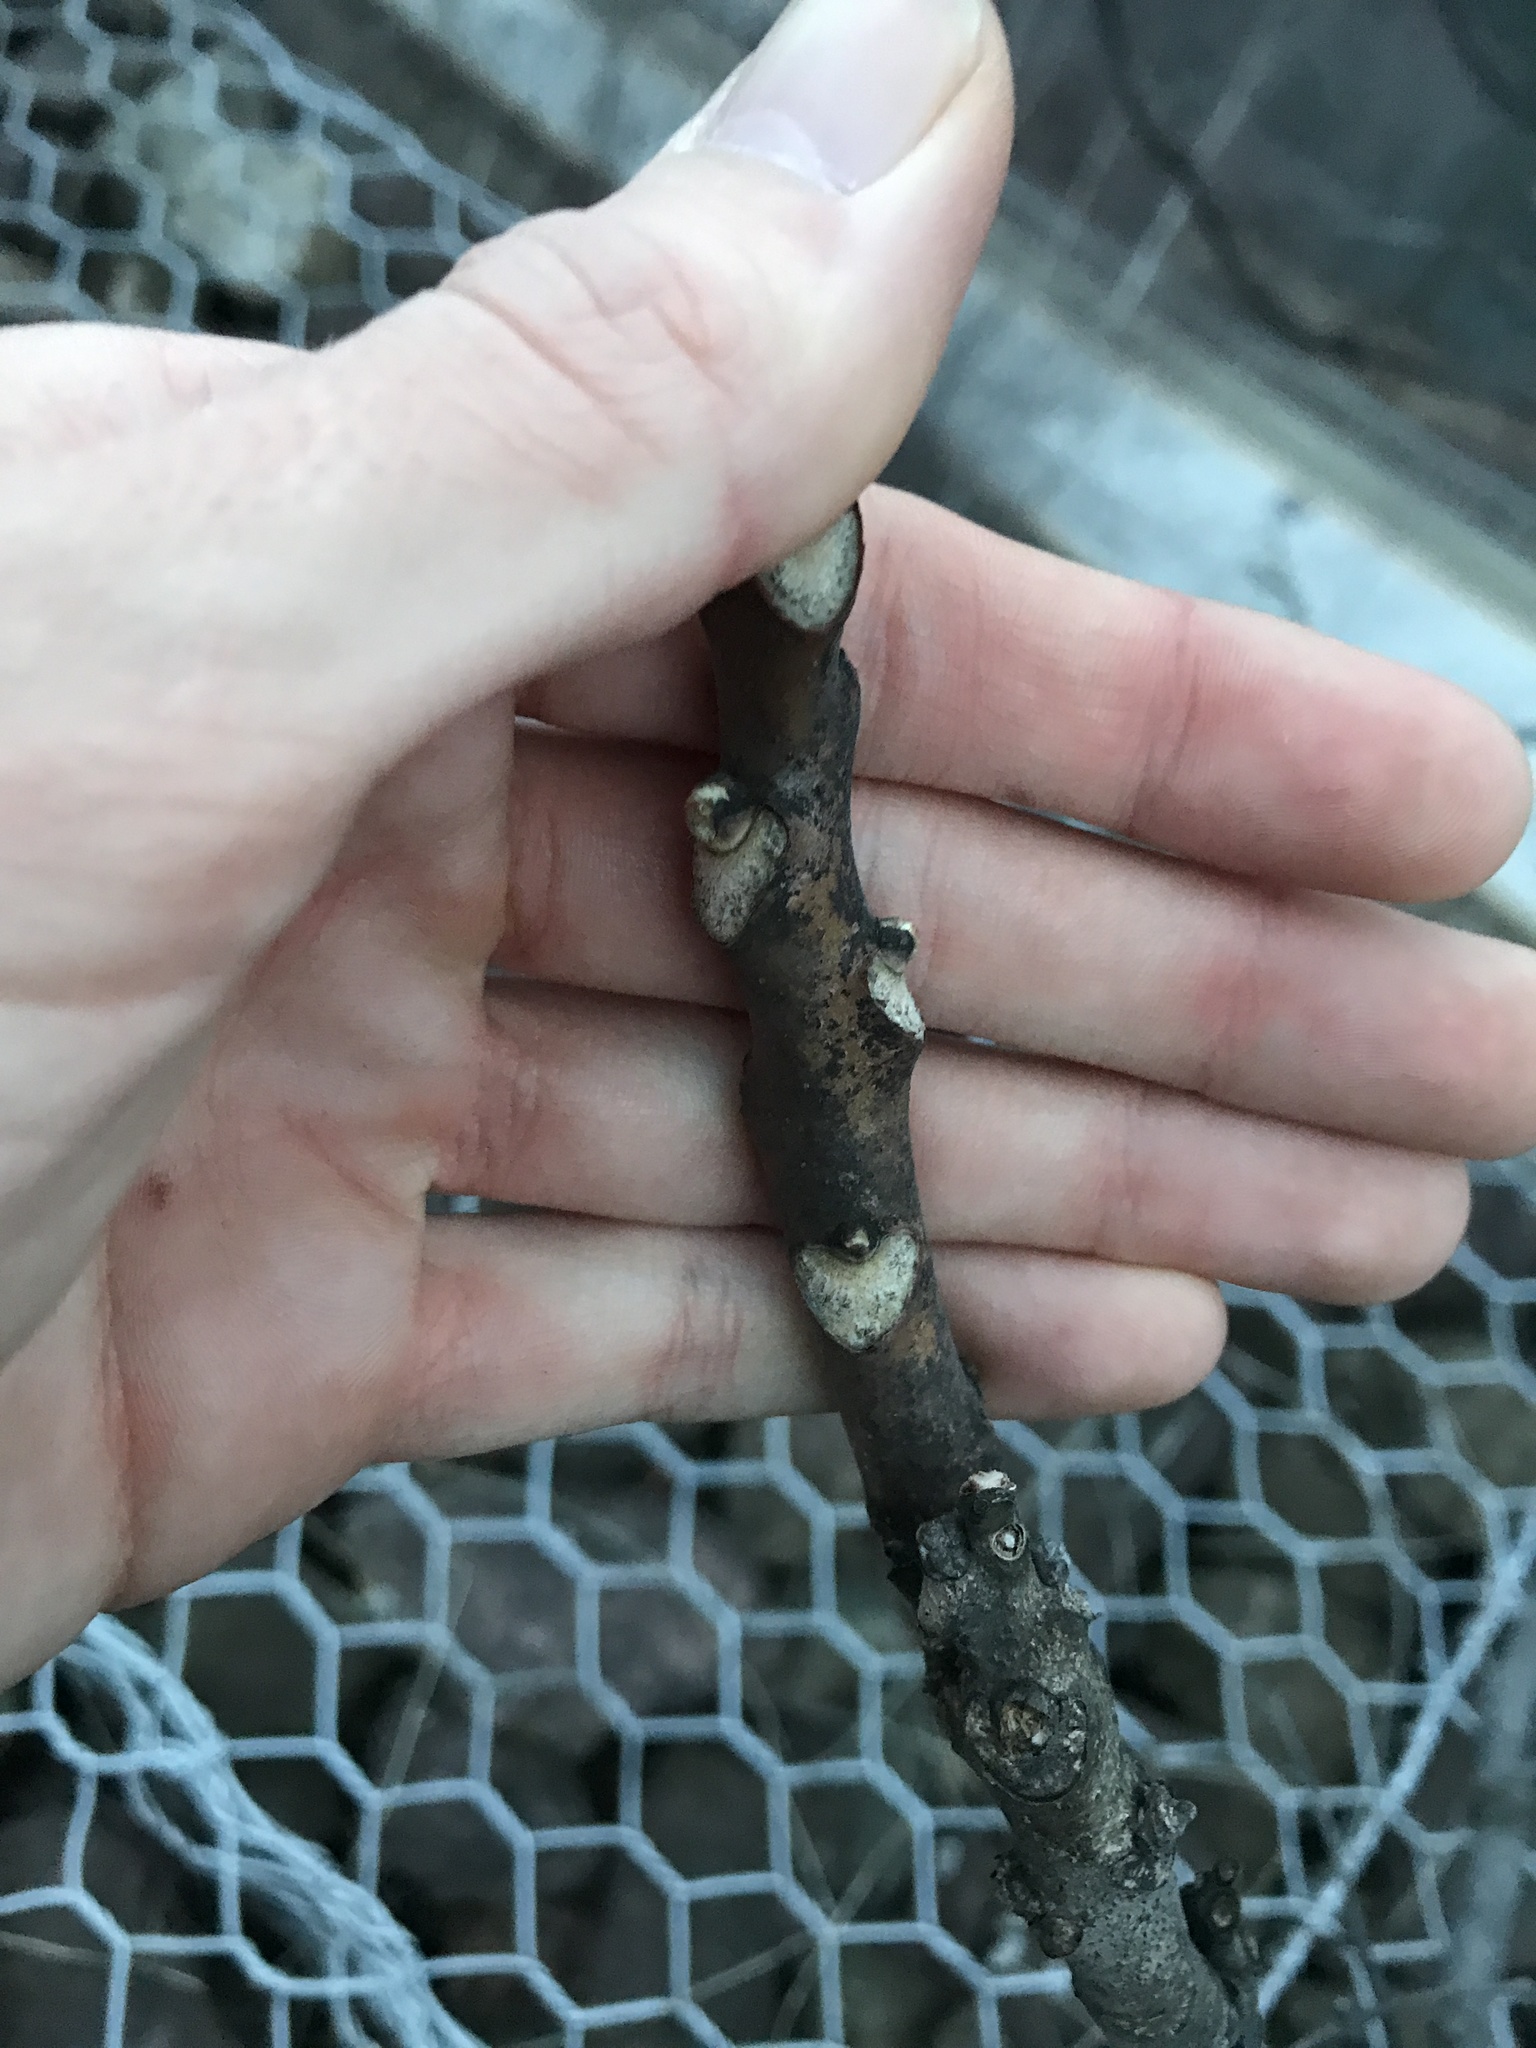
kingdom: Plantae
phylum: Tracheophyta
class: Magnoliopsida
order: Sapindales
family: Simaroubaceae
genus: Ailanthus
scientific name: Ailanthus altissima
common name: Tree-of-heaven
